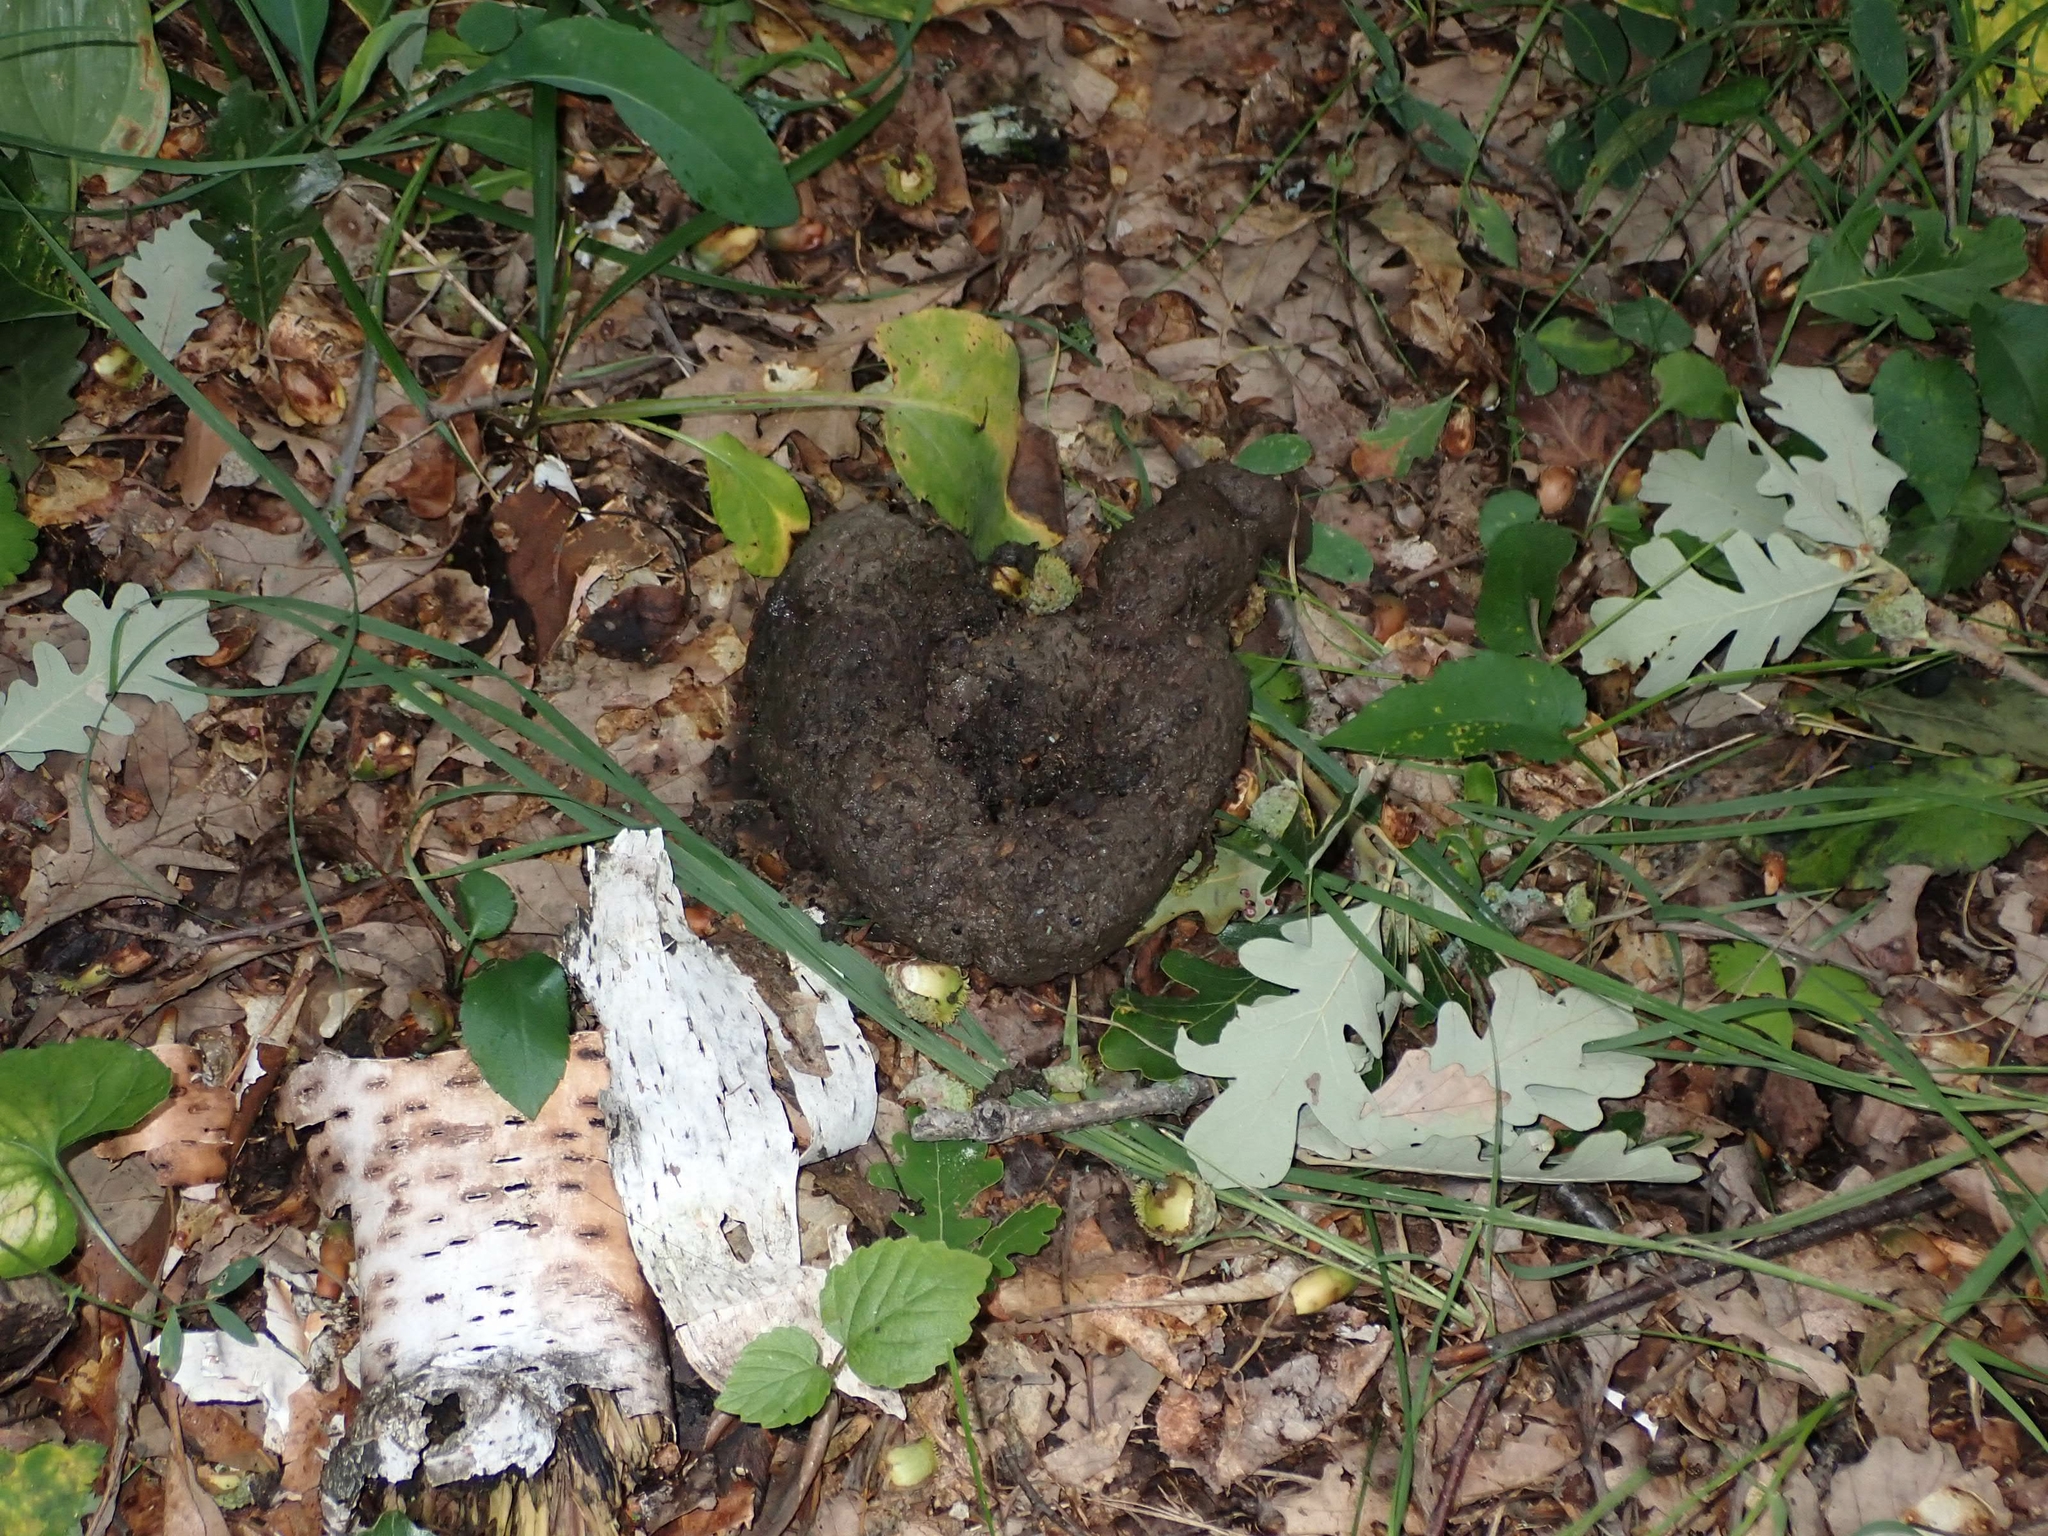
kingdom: Animalia
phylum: Chordata
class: Mammalia
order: Carnivora
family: Ursidae
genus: Ursus
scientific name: Ursus americanus
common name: American black bear
